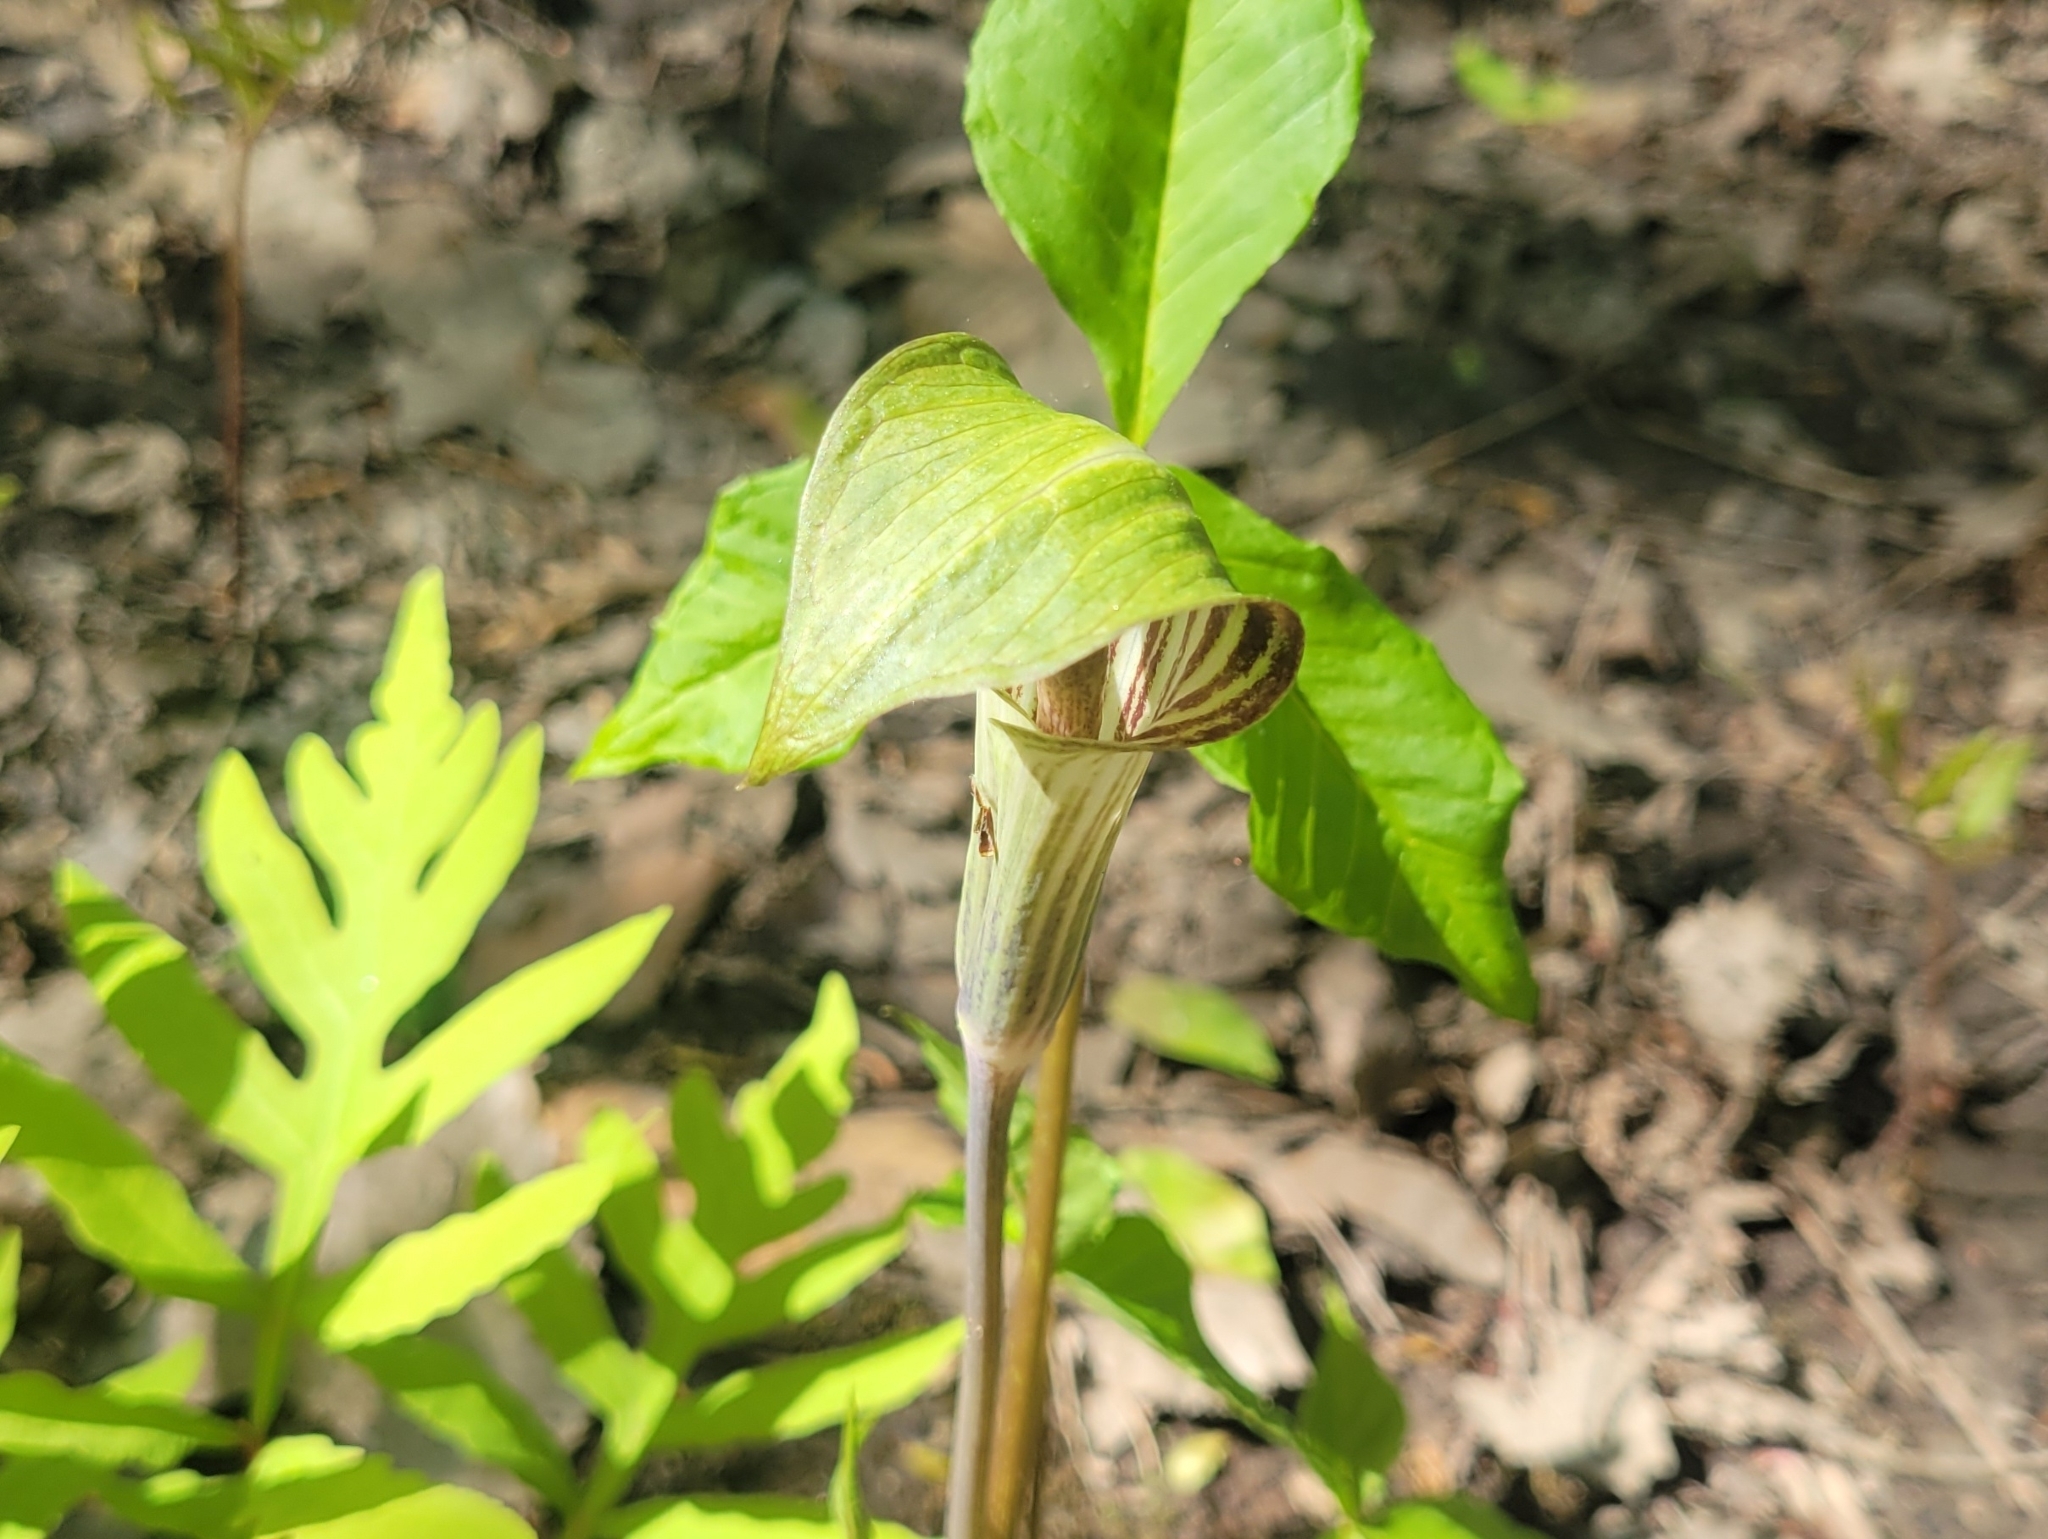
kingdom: Plantae
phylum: Tracheophyta
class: Liliopsida
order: Alismatales
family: Araceae
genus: Arisaema
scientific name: Arisaema triphyllum
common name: Jack-in-the-pulpit
